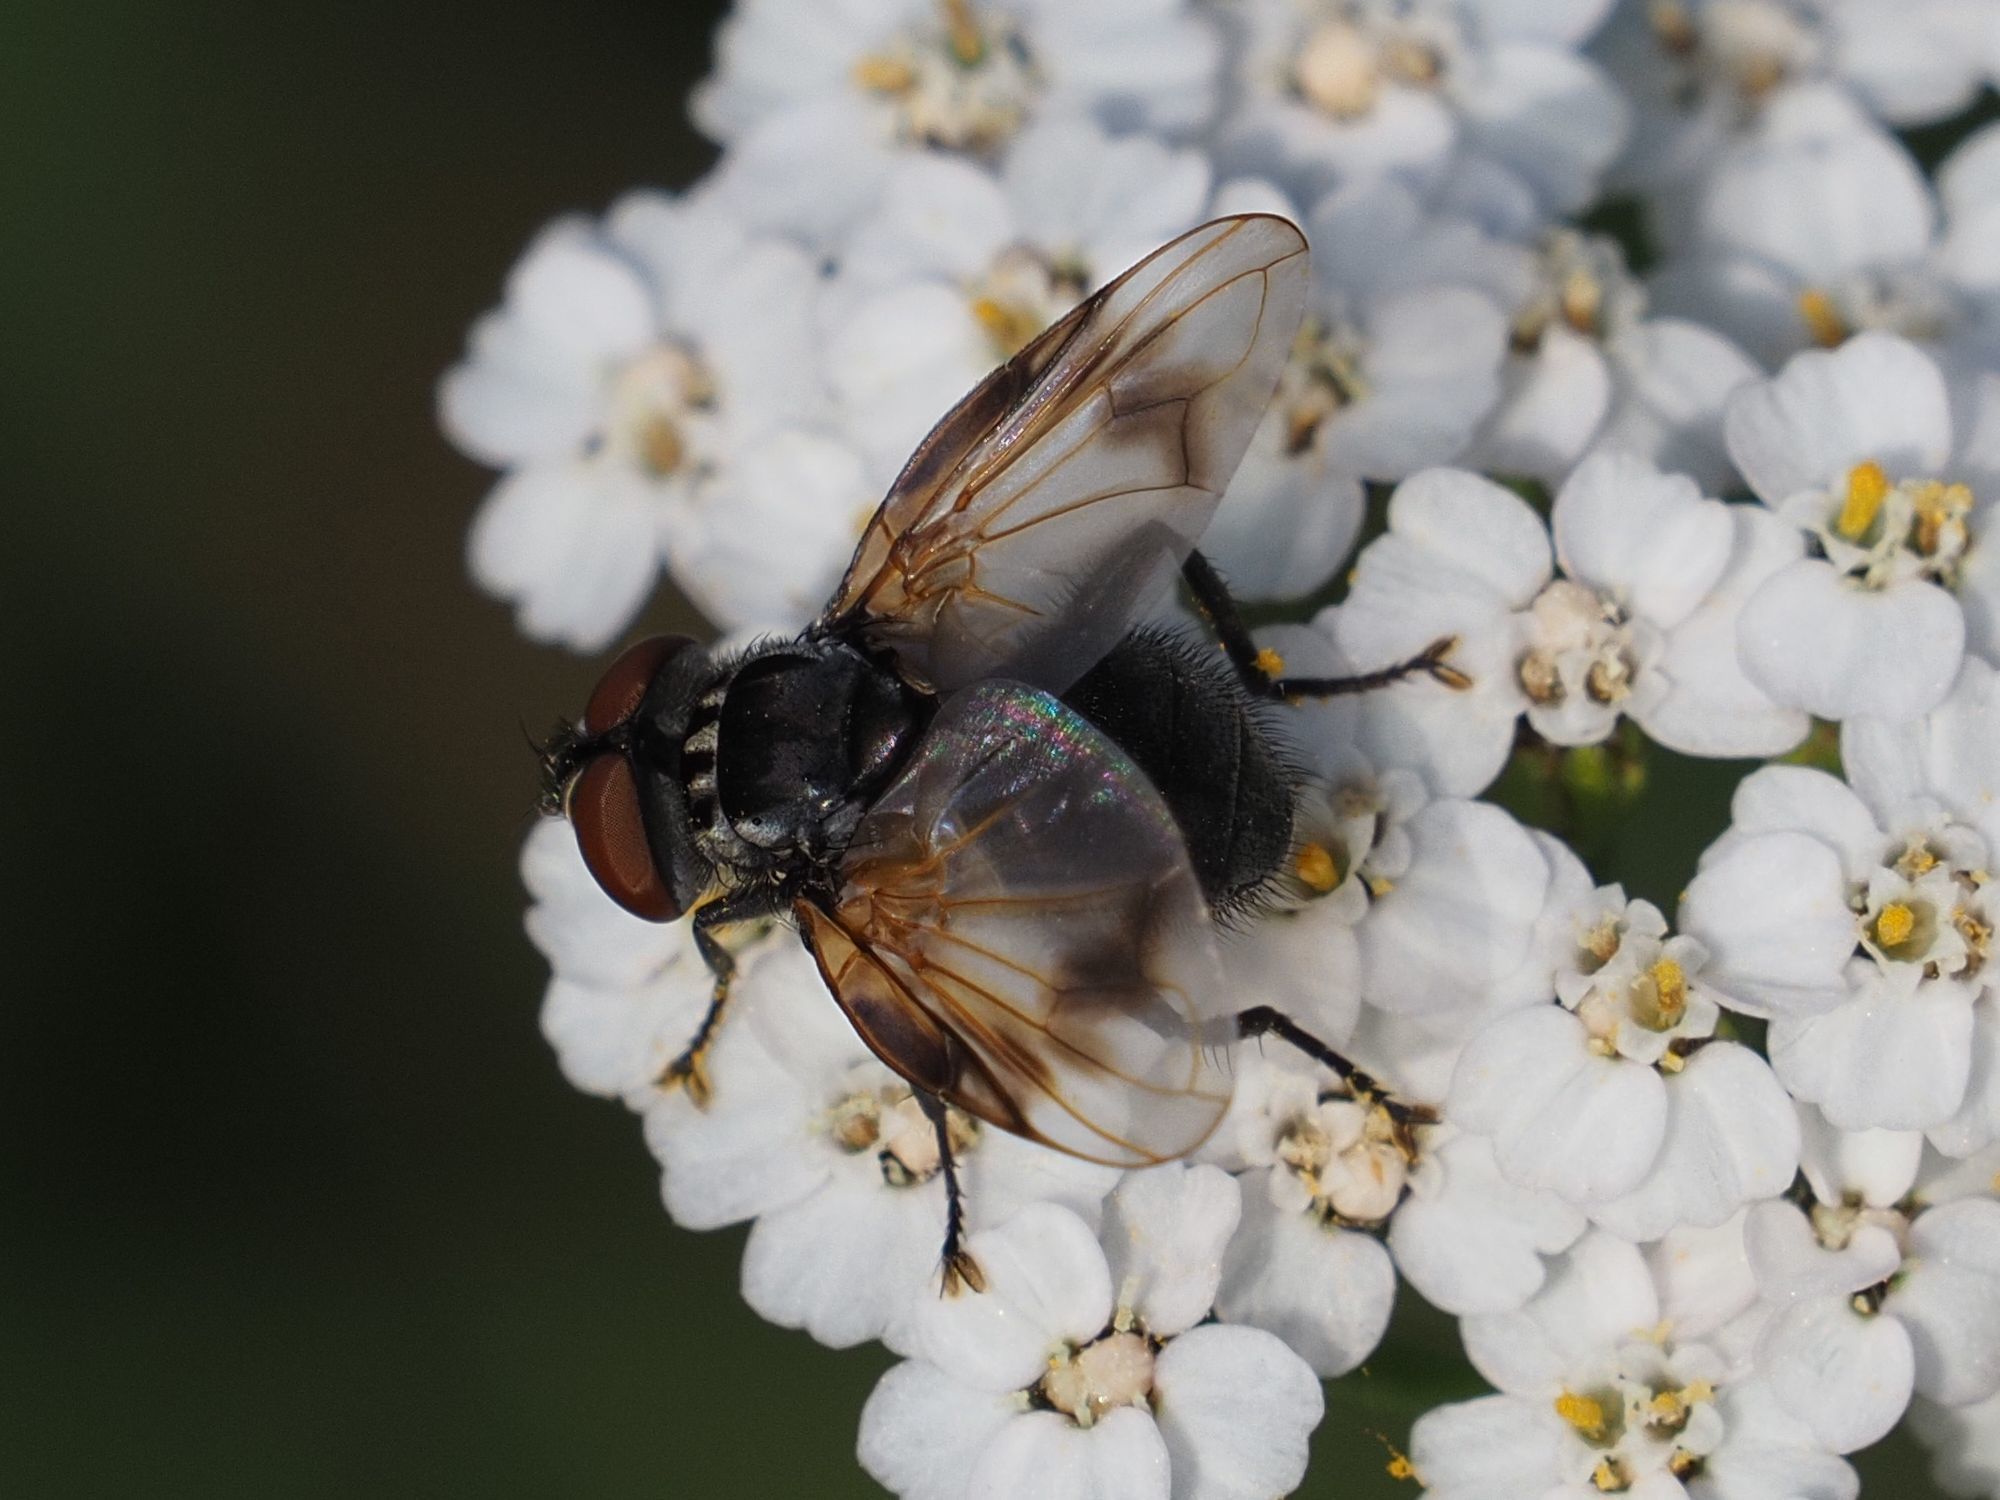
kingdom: Animalia
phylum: Arthropoda
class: Insecta
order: Diptera
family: Tachinidae
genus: Phasia
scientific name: Phasia obesa
